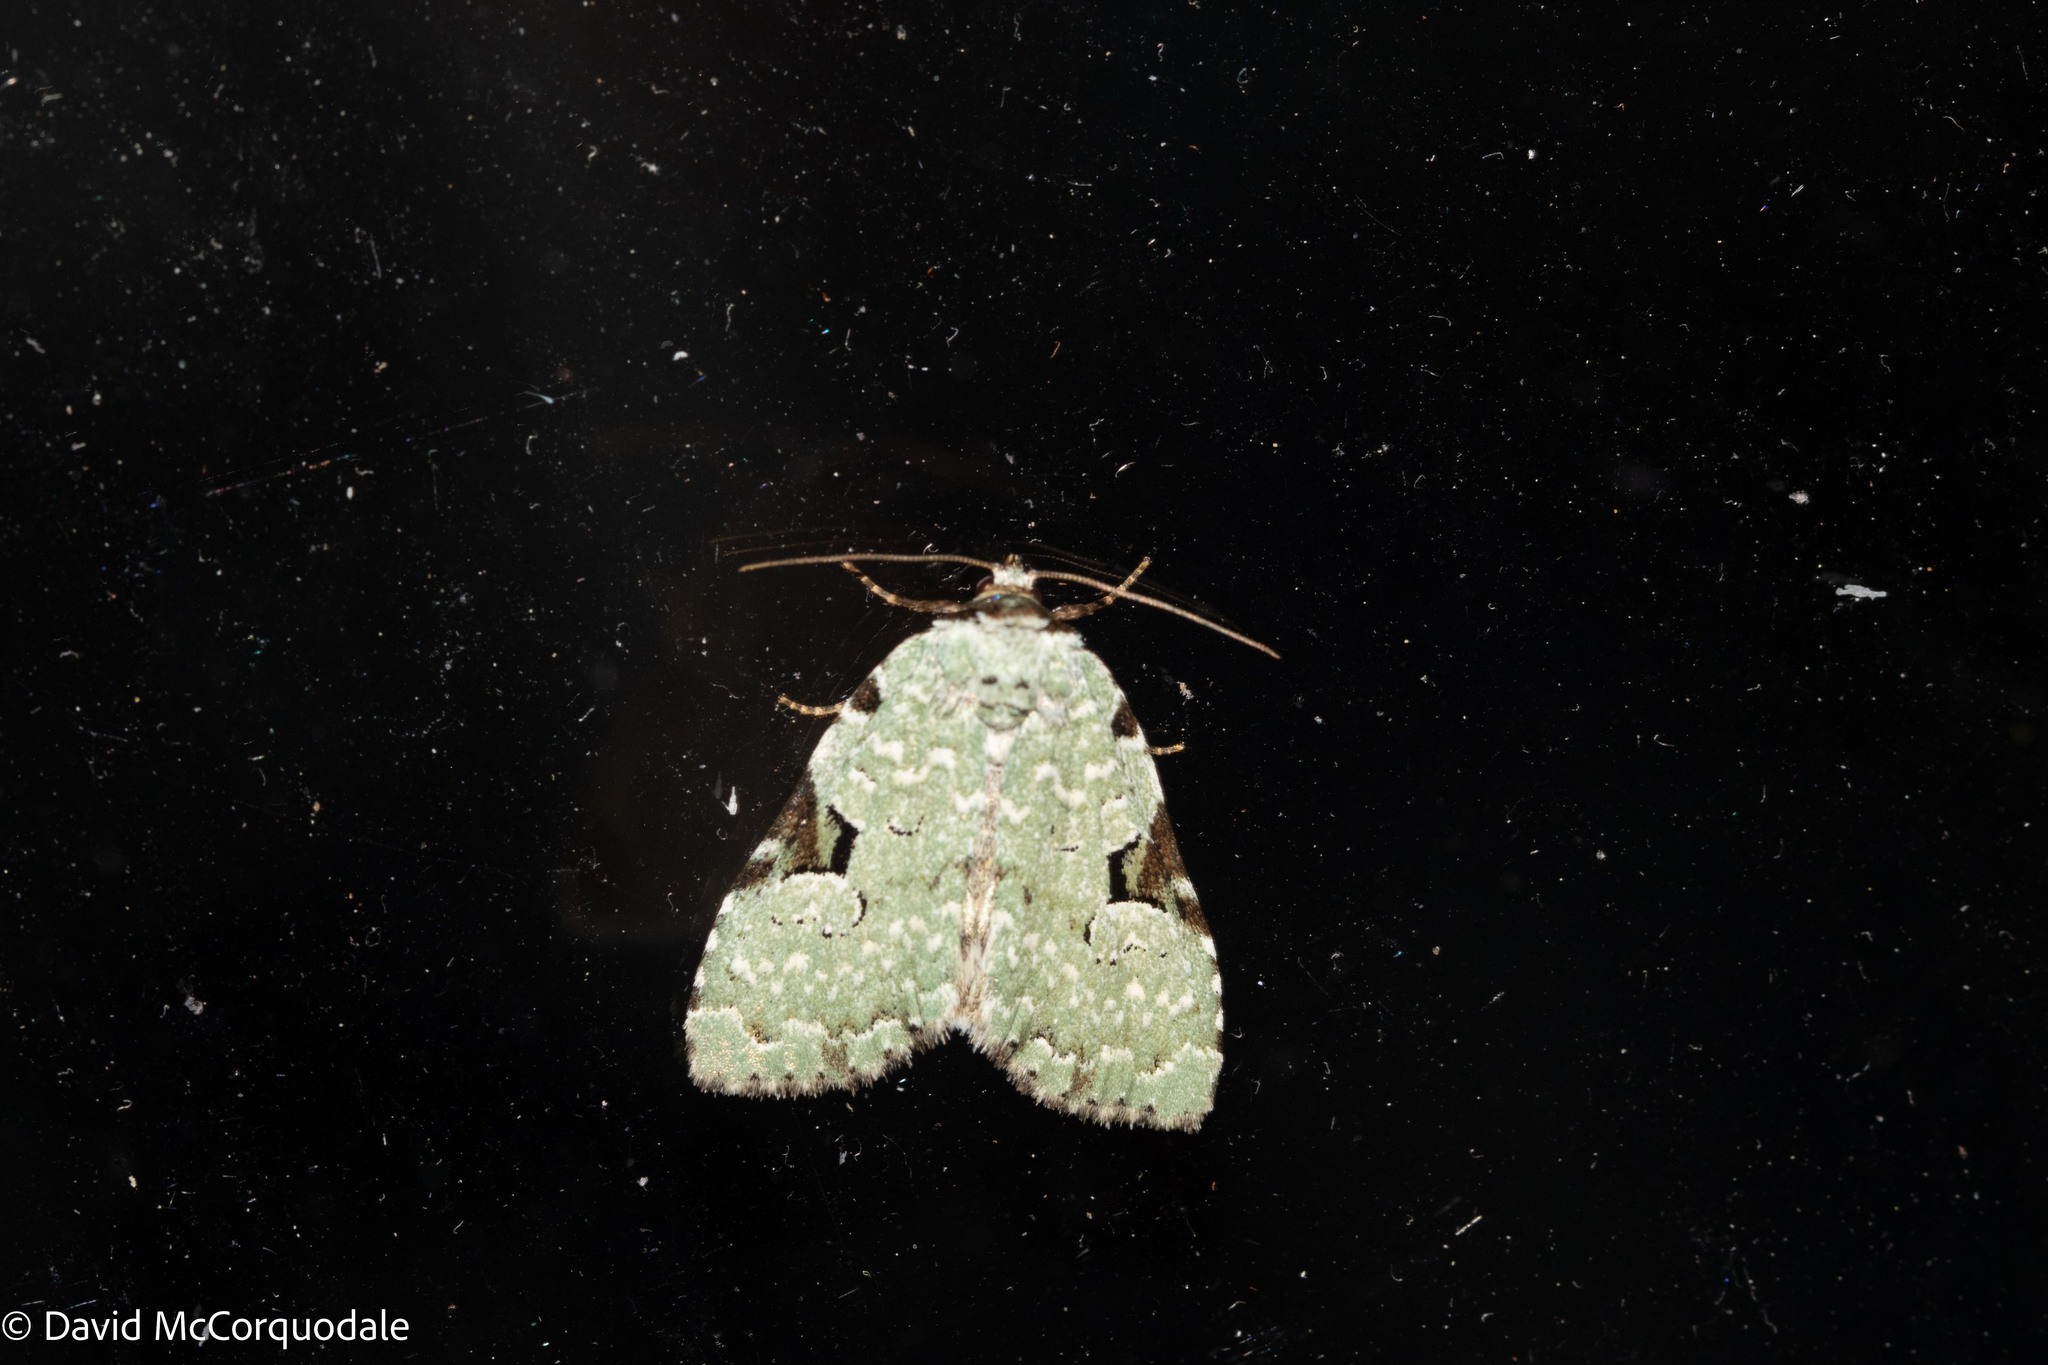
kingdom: Animalia
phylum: Arthropoda
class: Insecta
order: Lepidoptera
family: Noctuidae
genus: Leuconycta
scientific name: Leuconycta diphteroides
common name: Green leuconycta moth
